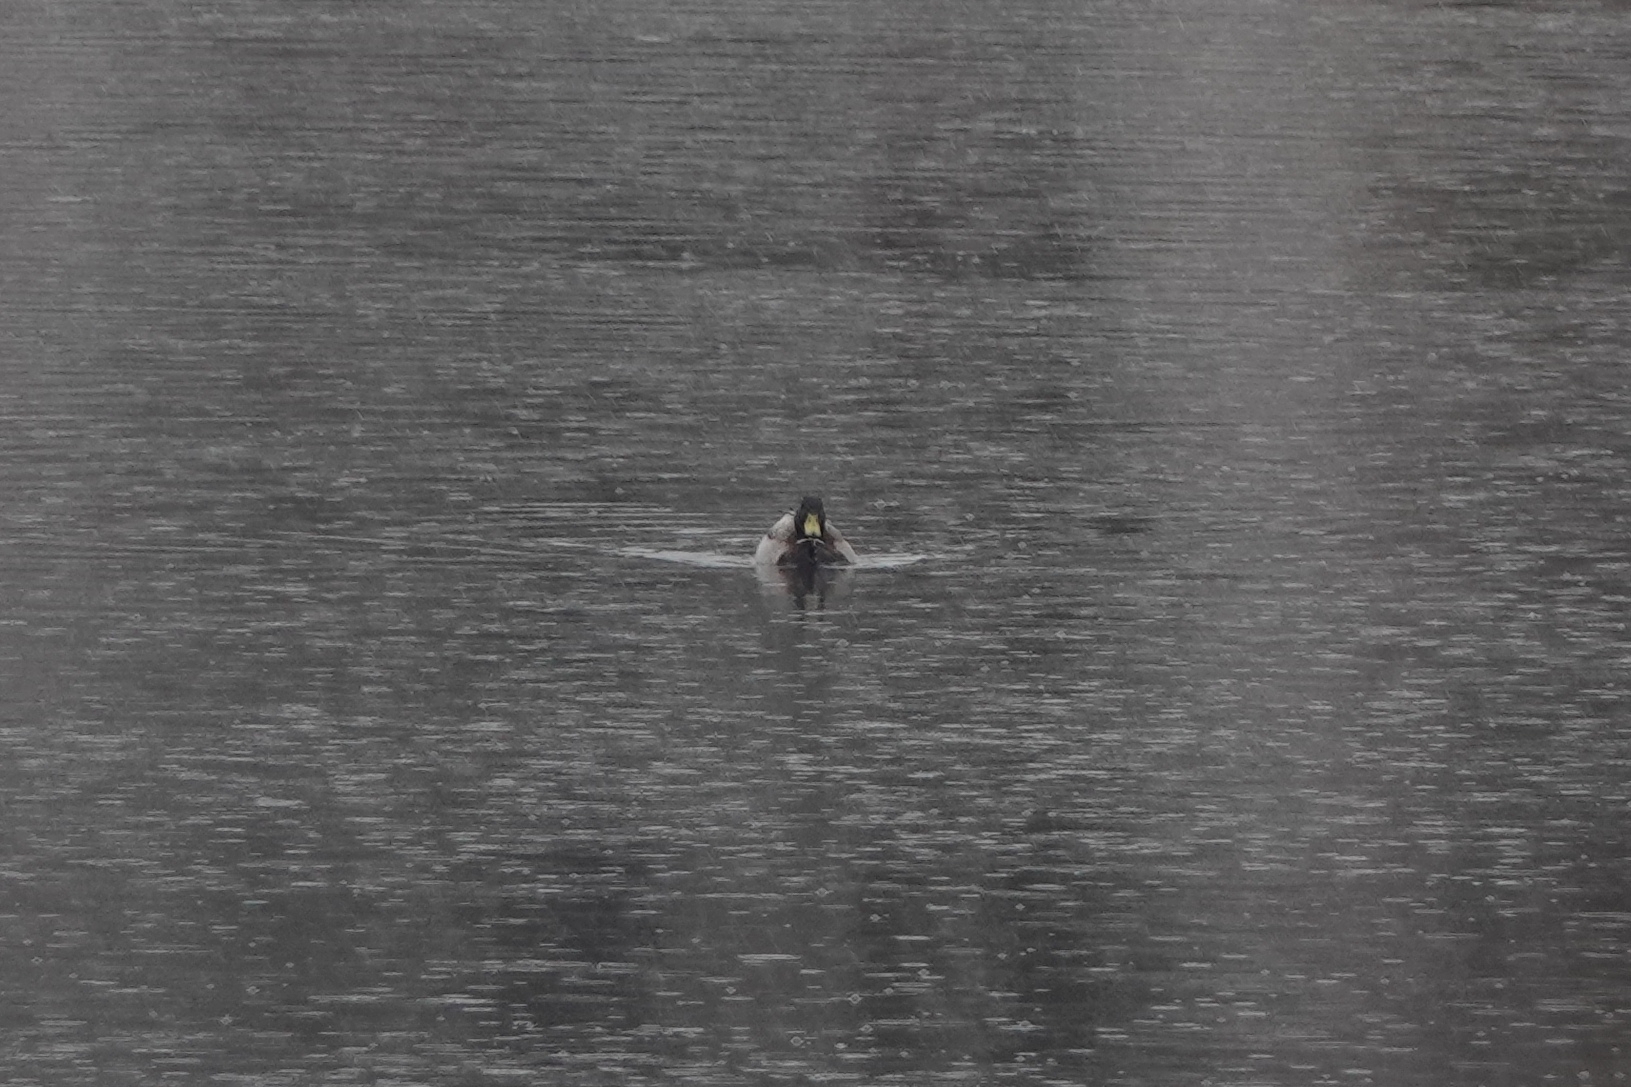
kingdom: Animalia
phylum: Chordata
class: Aves
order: Anseriformes
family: Anatidae
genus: Anas
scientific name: Anas platyrhynchos
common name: Mallard
